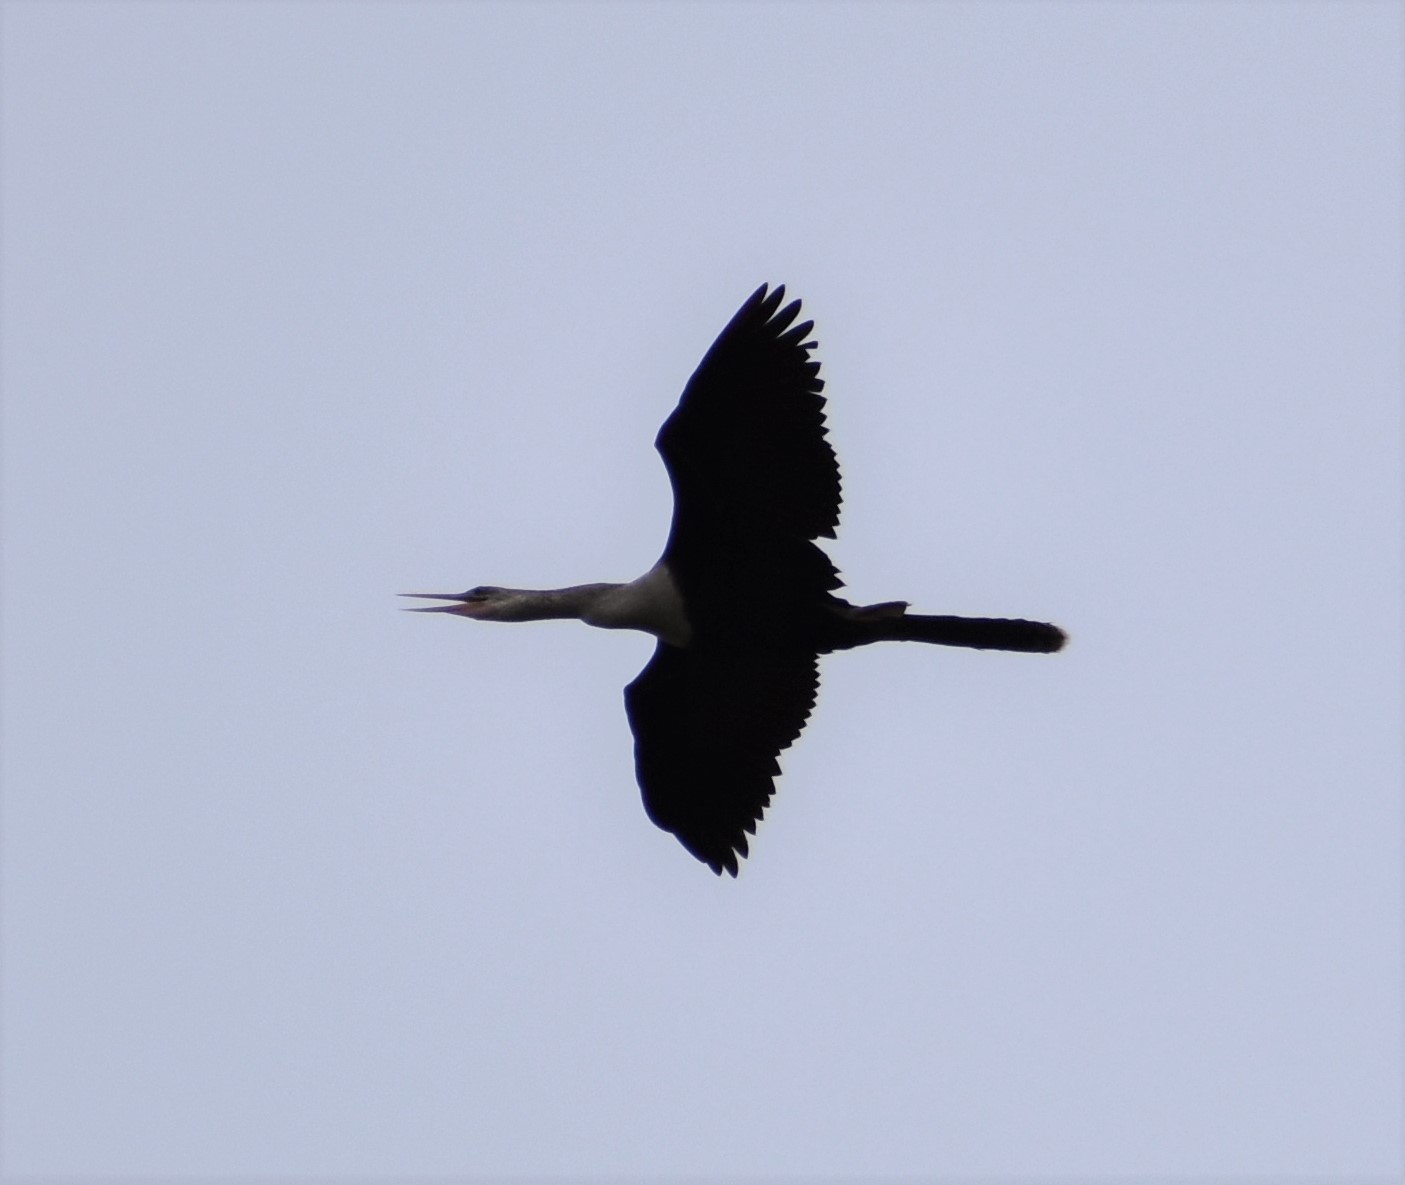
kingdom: Animalia
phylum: Chordata
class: Aves
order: Suliformes
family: Anhingidae
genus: Anhinga
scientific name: Anhinga anhinga
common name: Anhinga
